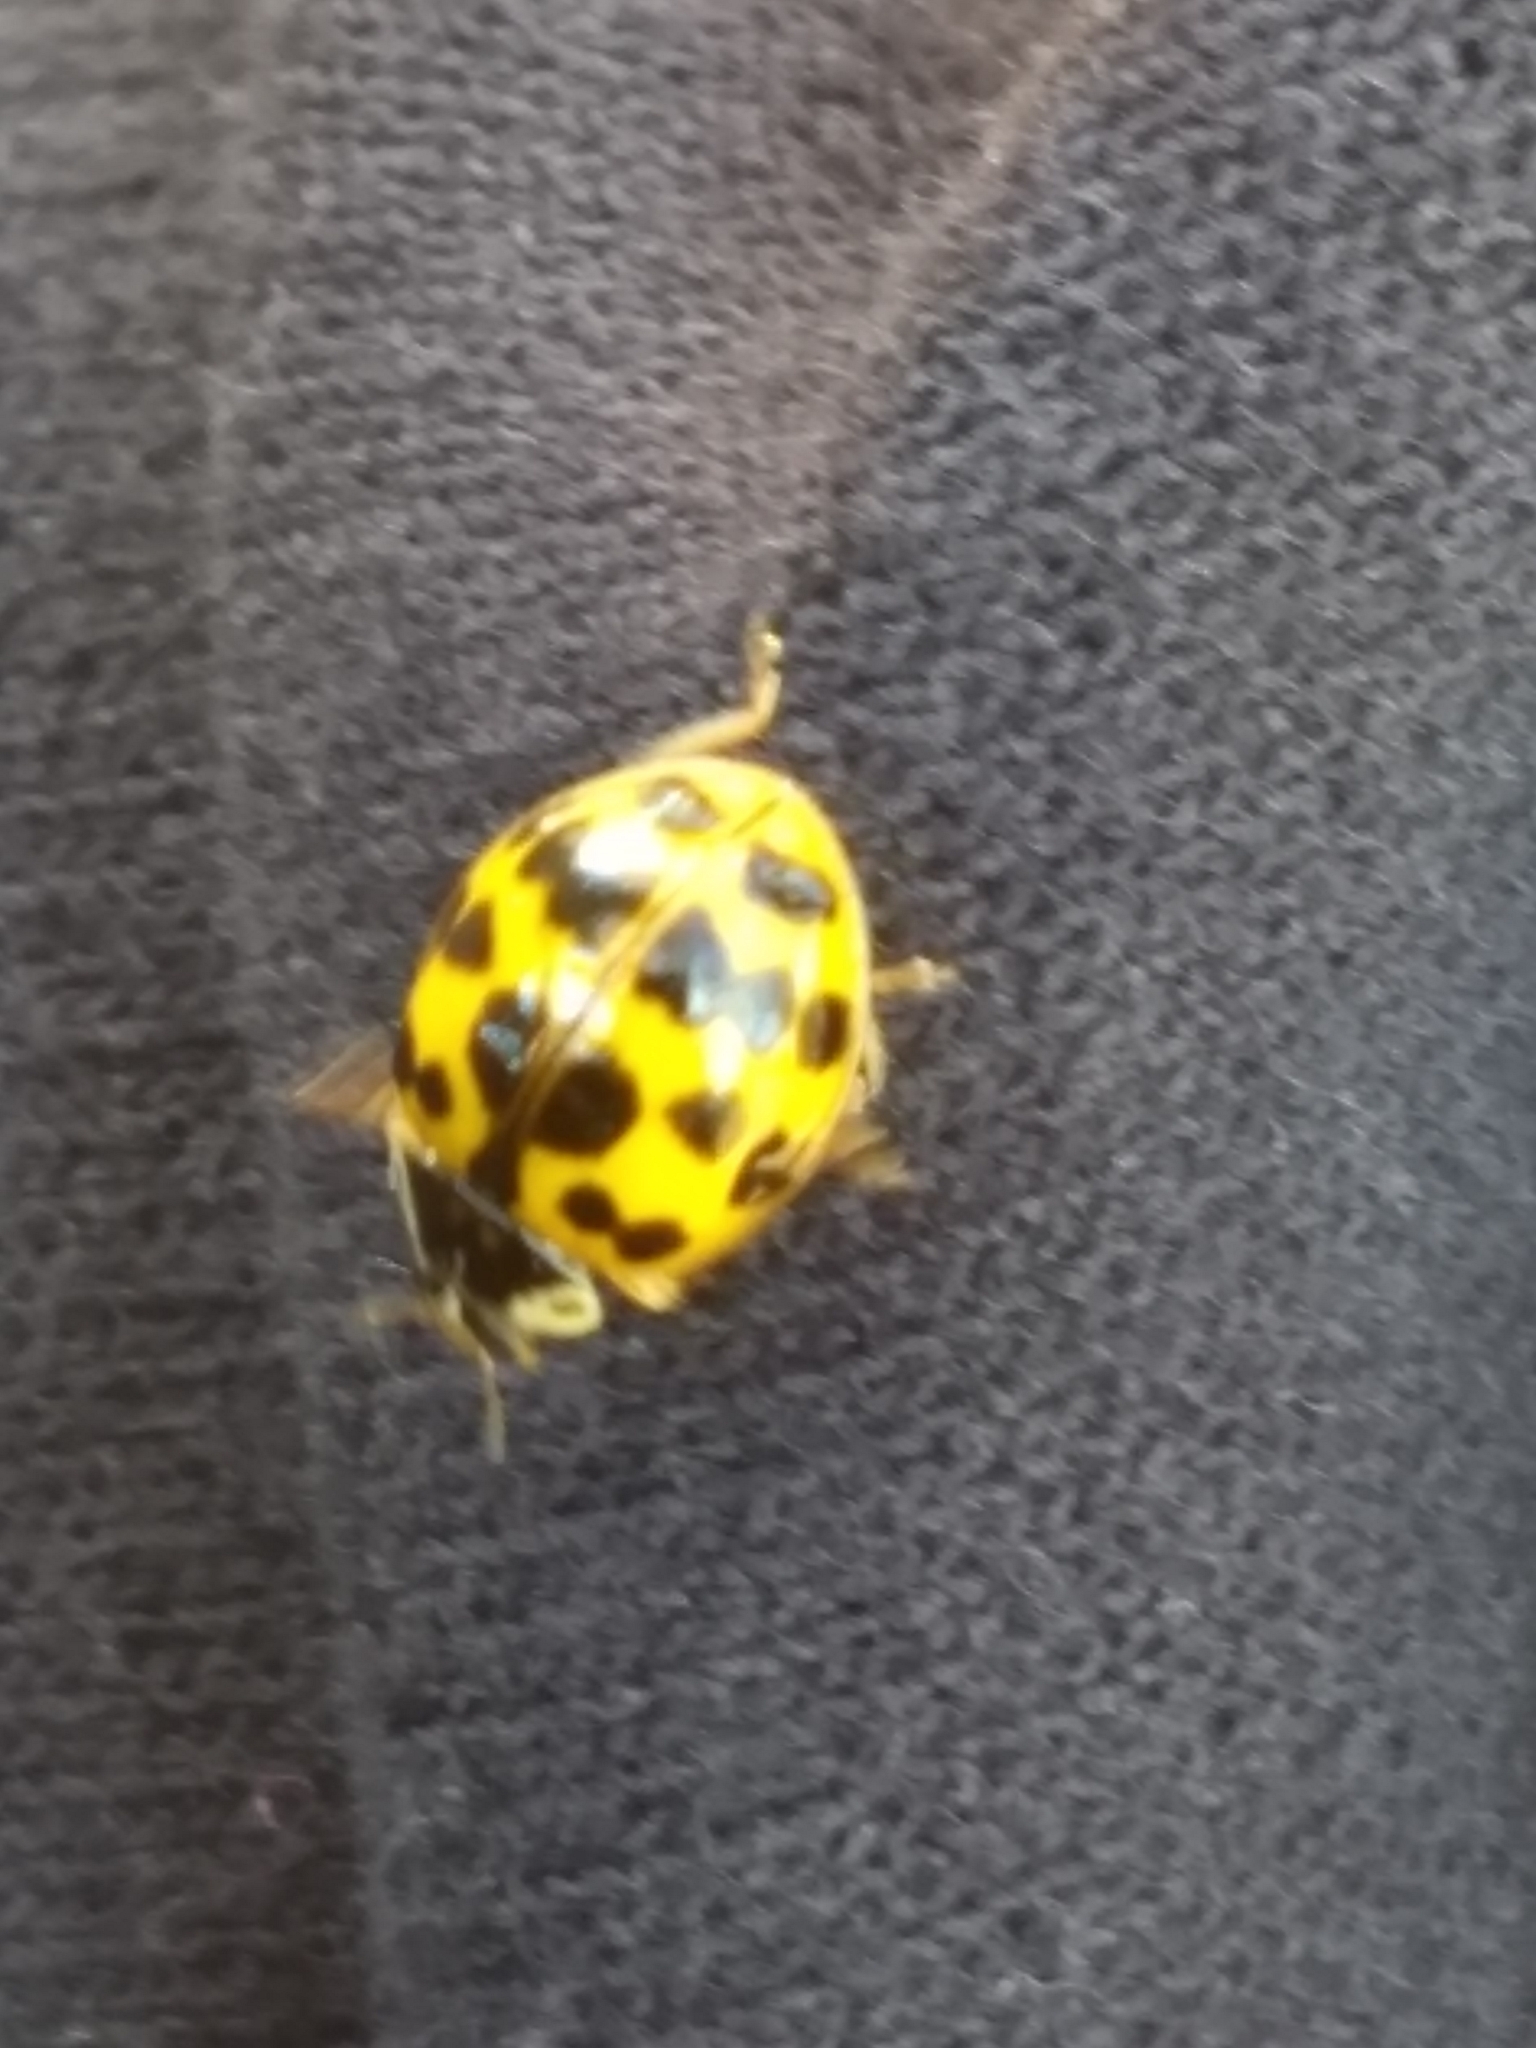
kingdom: Animalia
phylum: Arthropoda
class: Insecta
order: Coleoptera
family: Coccinellidae
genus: Harmonia
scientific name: Harmonia axyridis
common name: Harlequin ladybird
